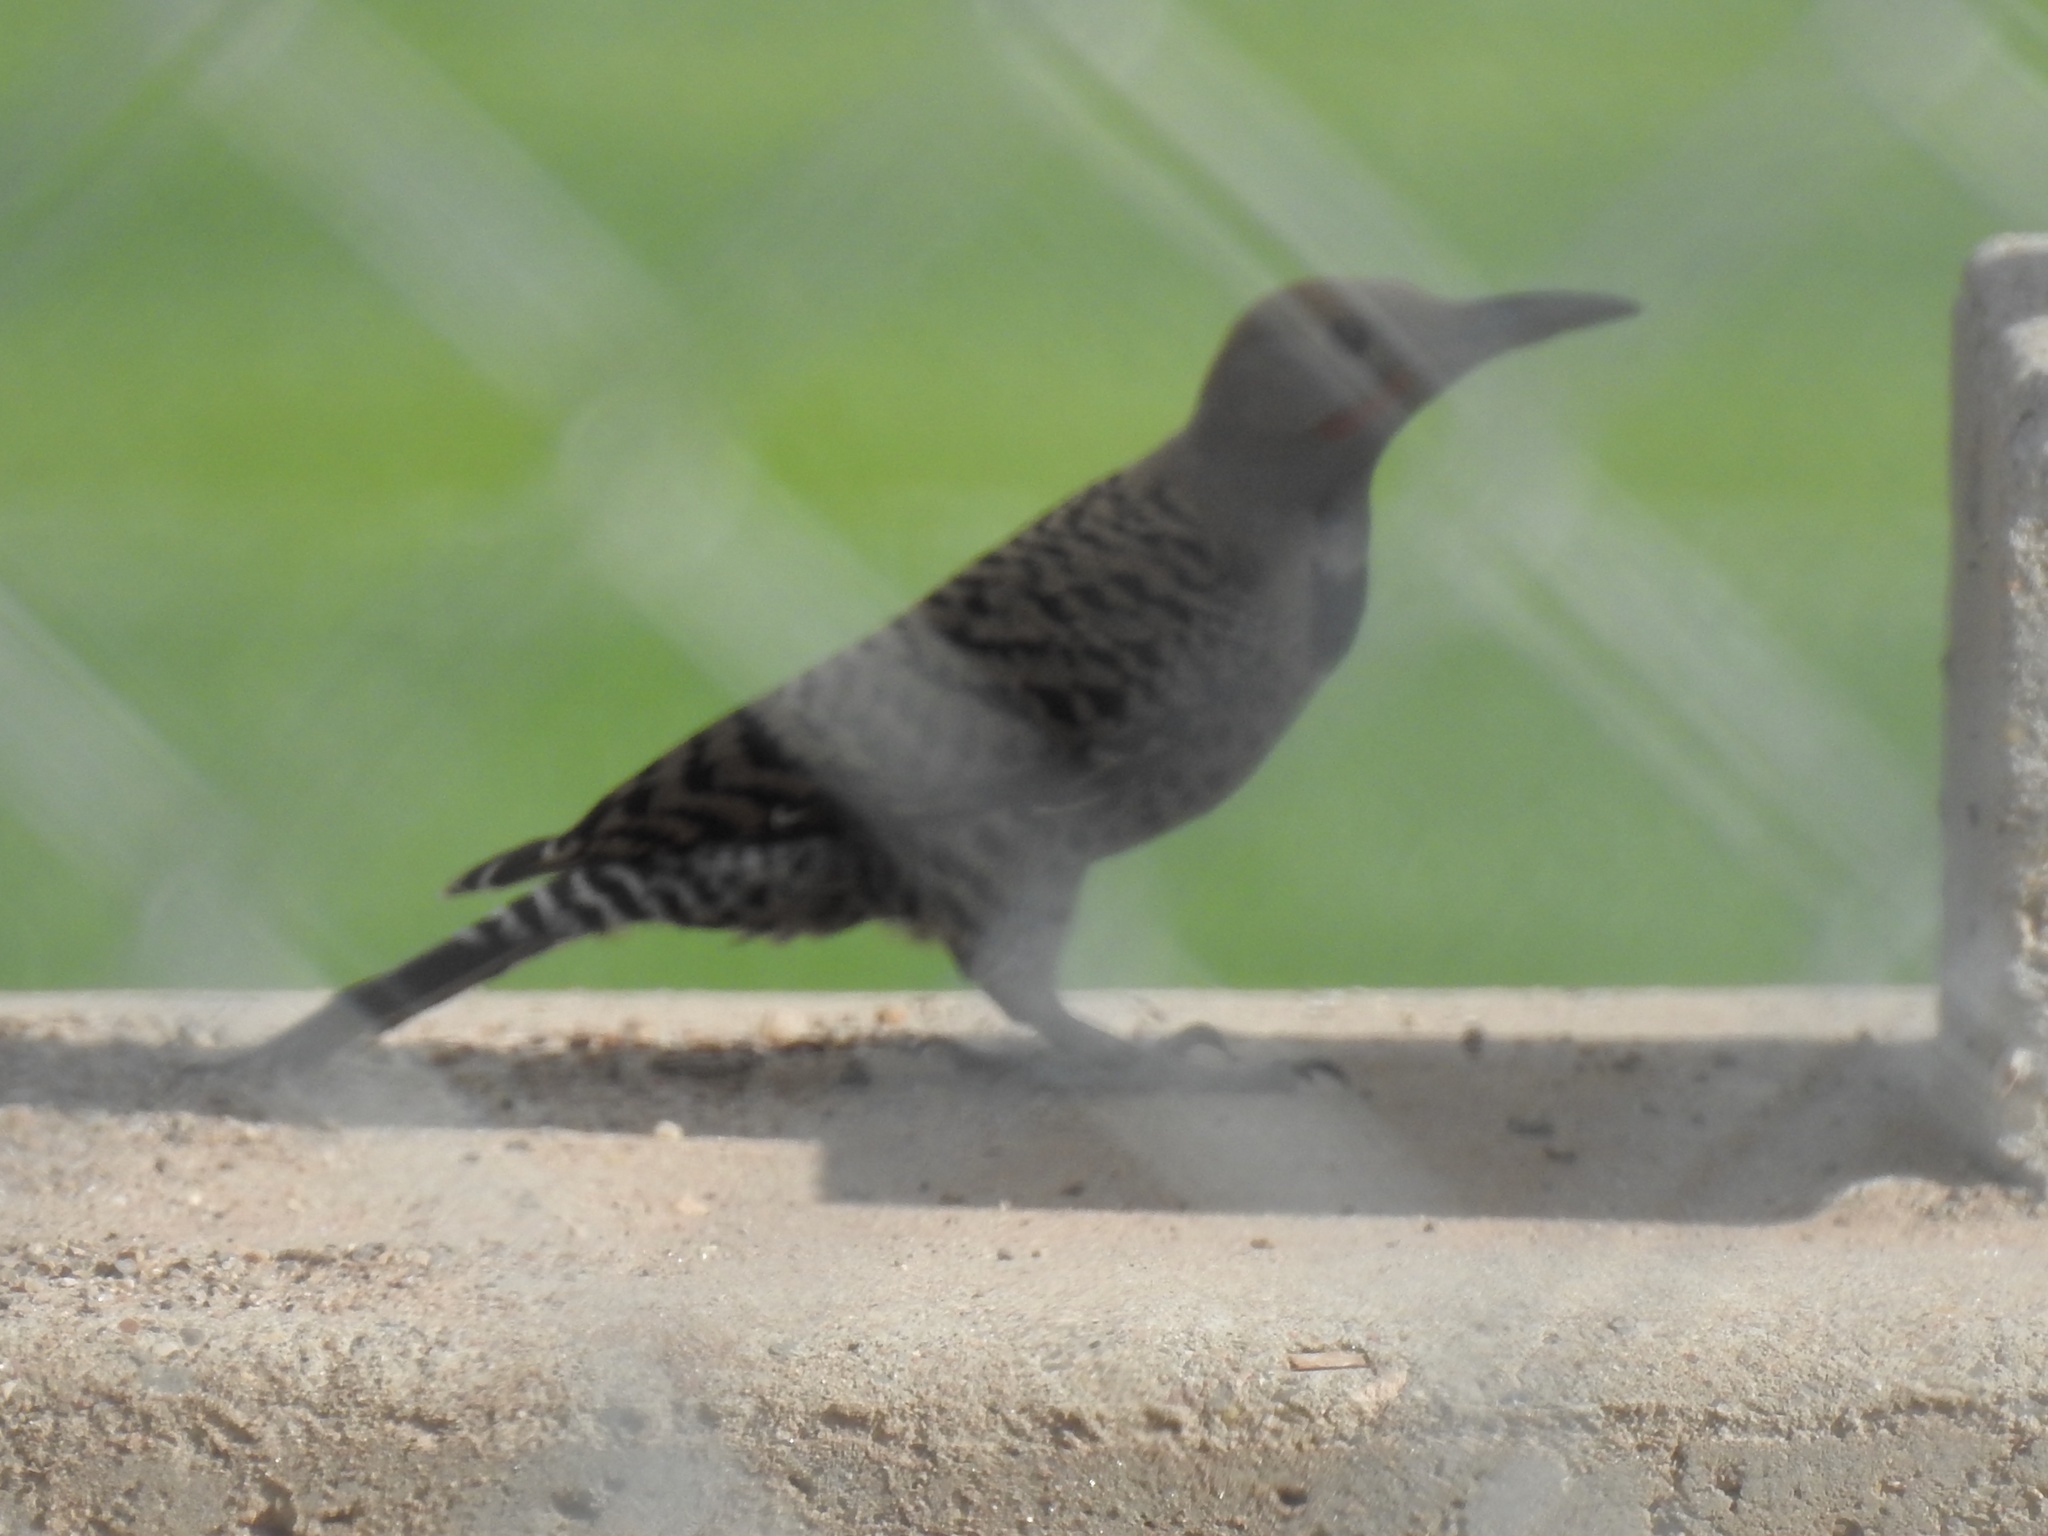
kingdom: Animalia
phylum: Chordata
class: Aves
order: Piciformes
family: Picidae
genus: Colaptes
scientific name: Colaptes auratus
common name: Northern flicker
